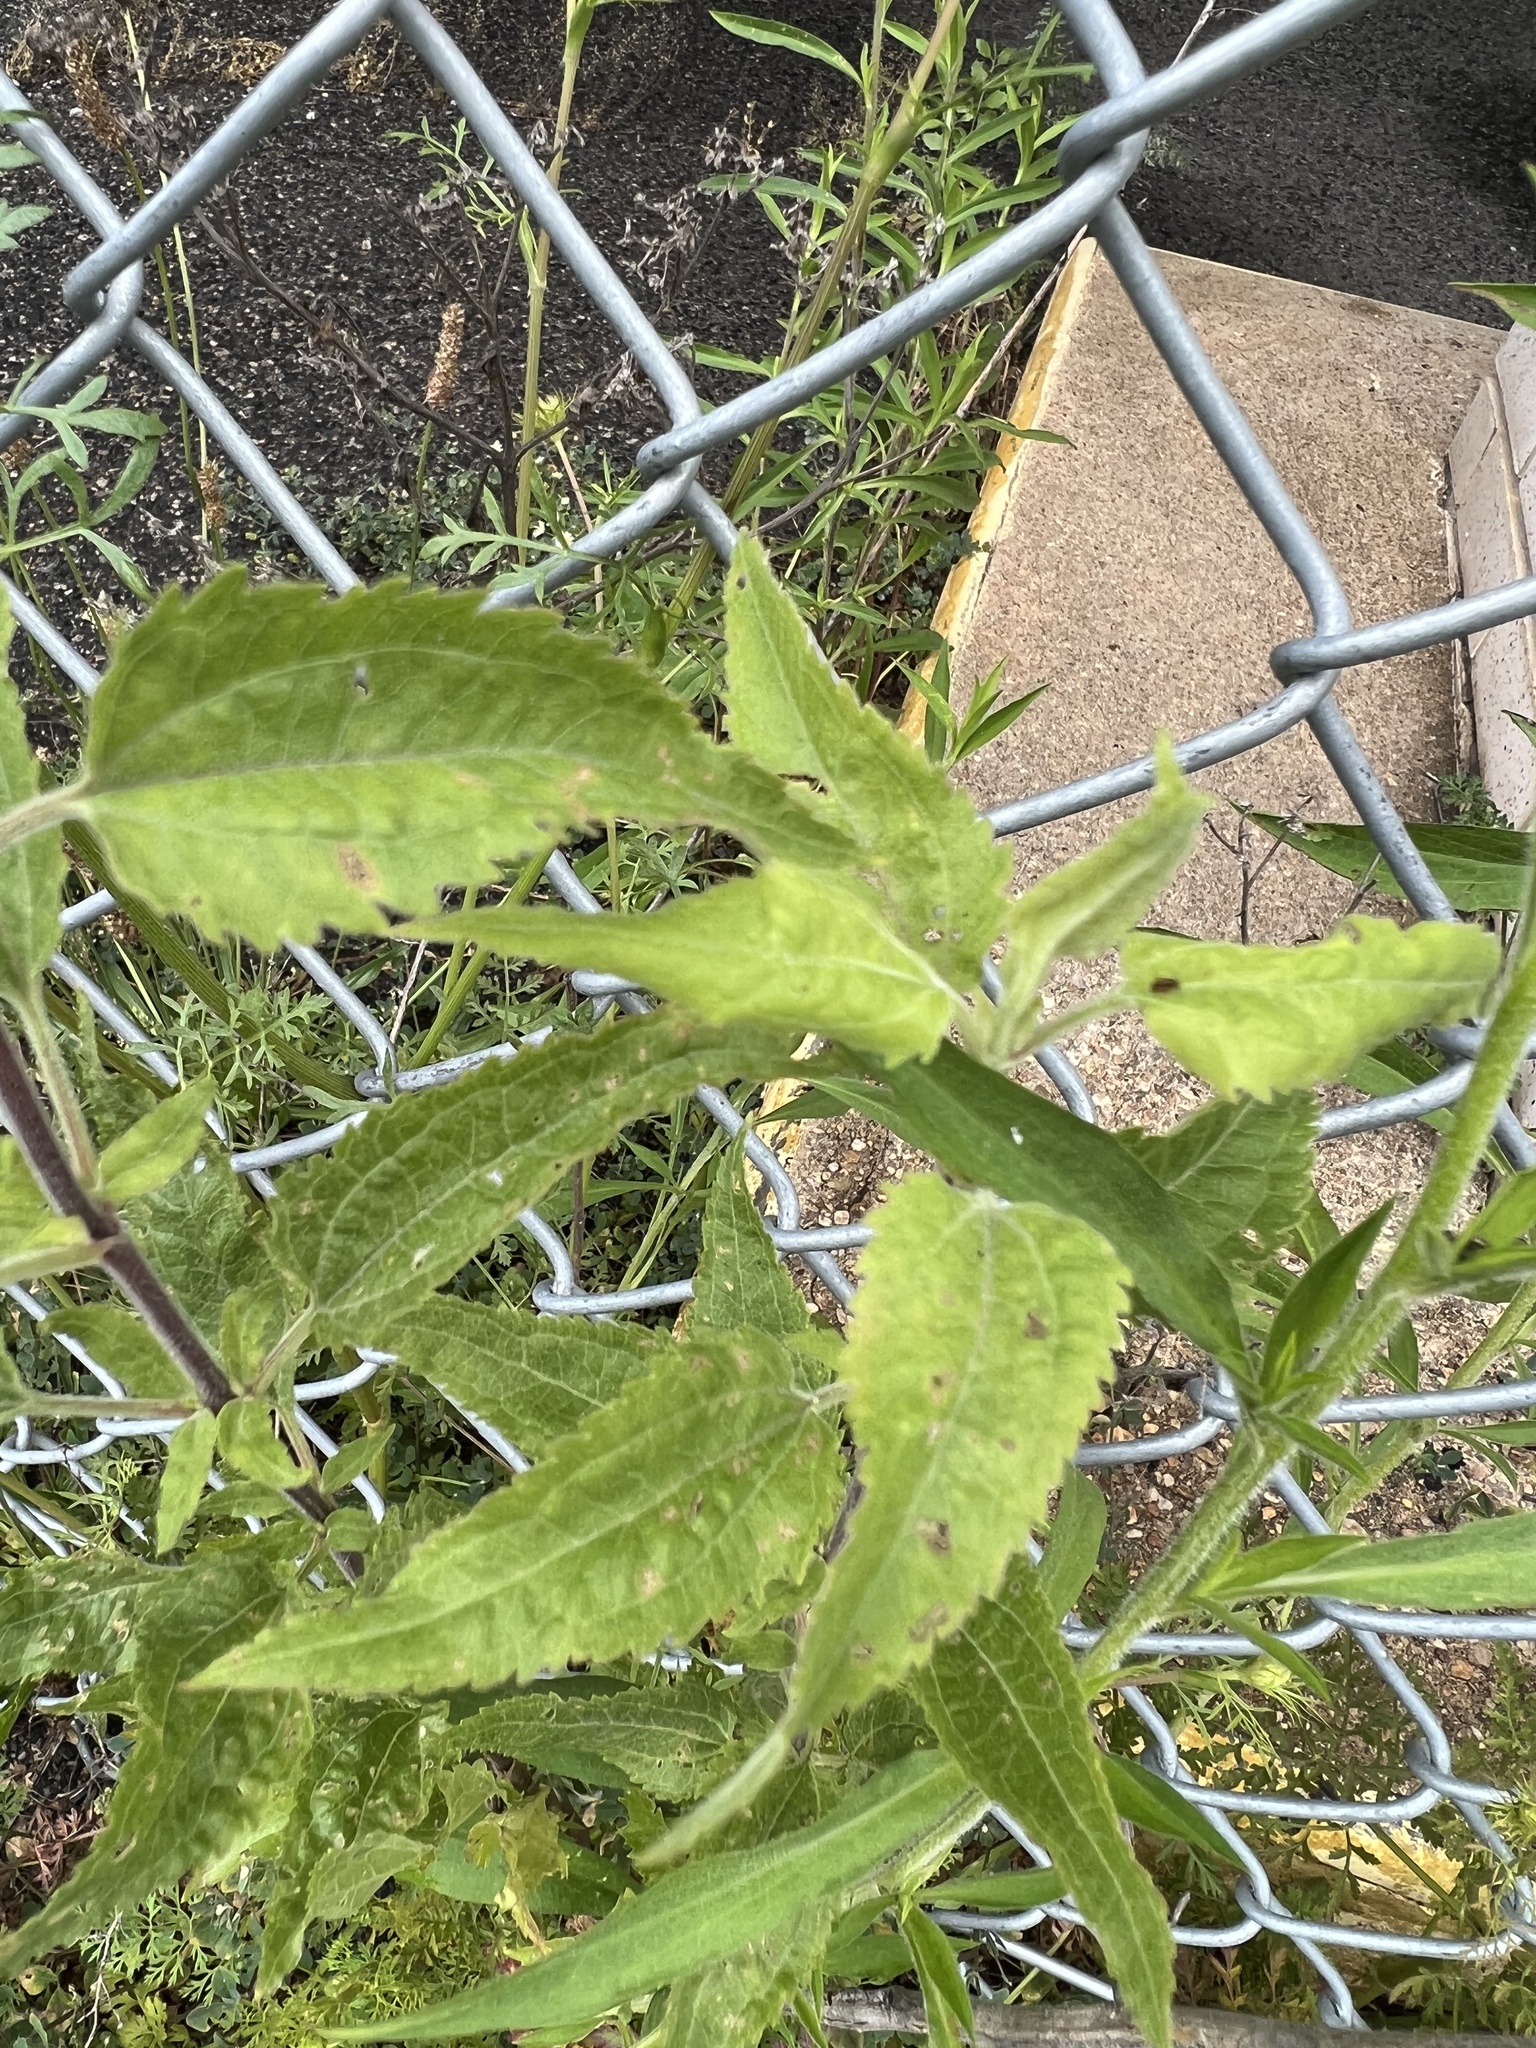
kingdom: Plantae
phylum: Tracheophyta
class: Magnoliopsida
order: Asterales
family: Asteraceae
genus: Eupatorium
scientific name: Eupatorium serotinum
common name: Late boneset
